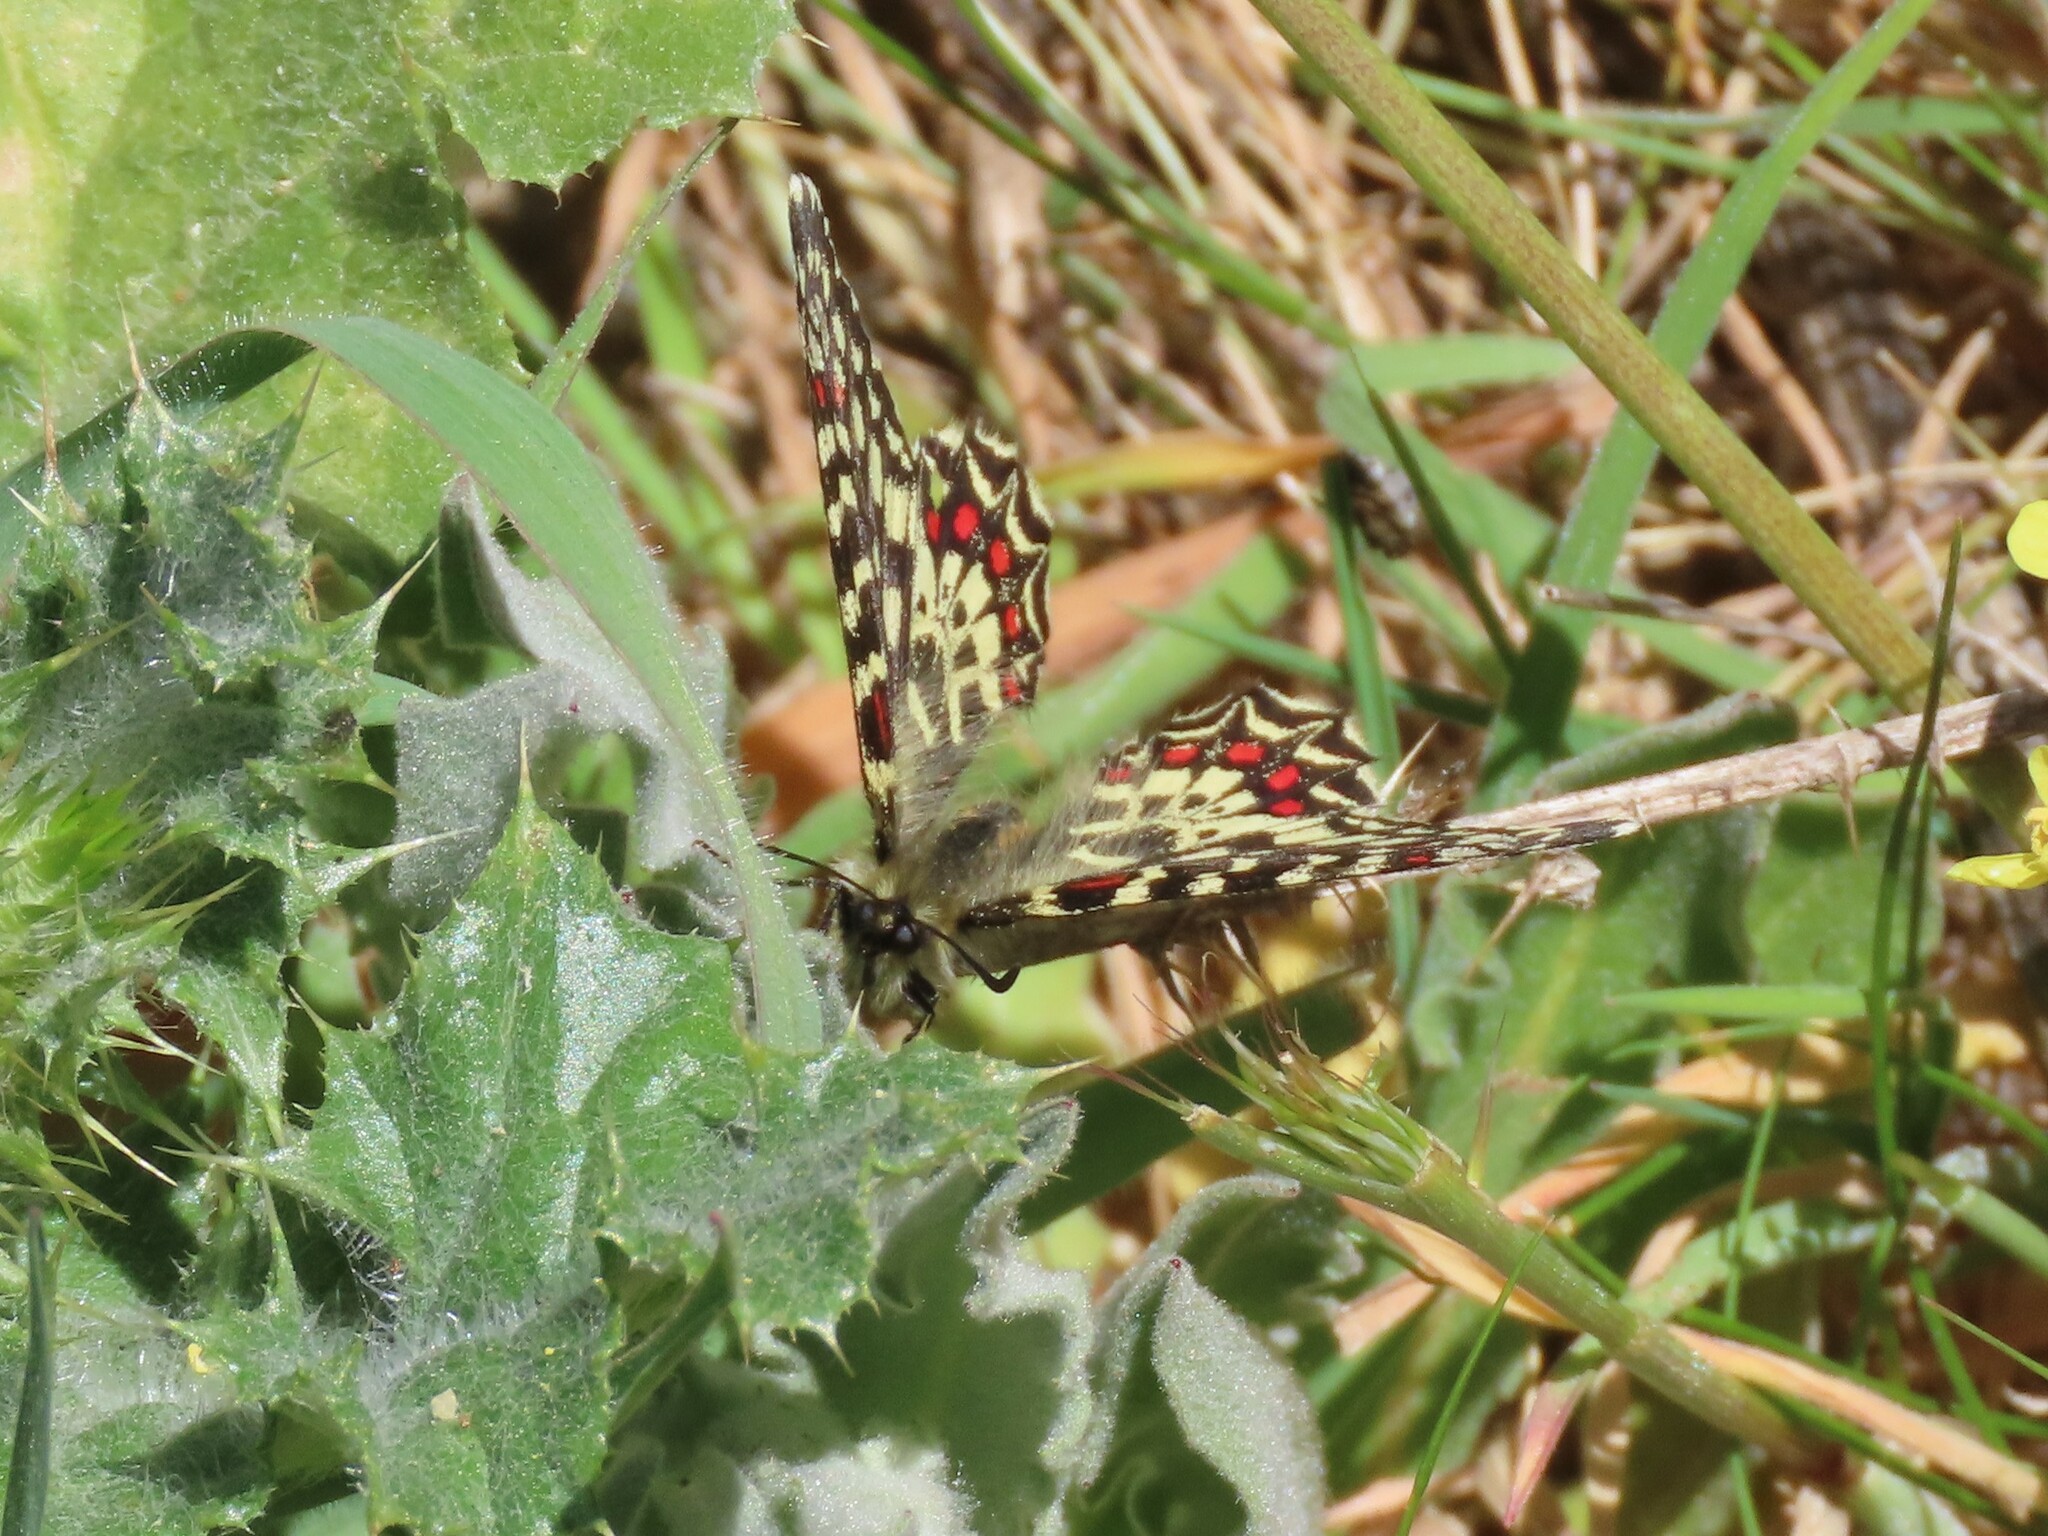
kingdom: Animalia
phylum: Arthropoda
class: Insecta
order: Lepidoptera
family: Papilionidae
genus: Zerynthia
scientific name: Zerynthia rumina
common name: Spanish festoon
